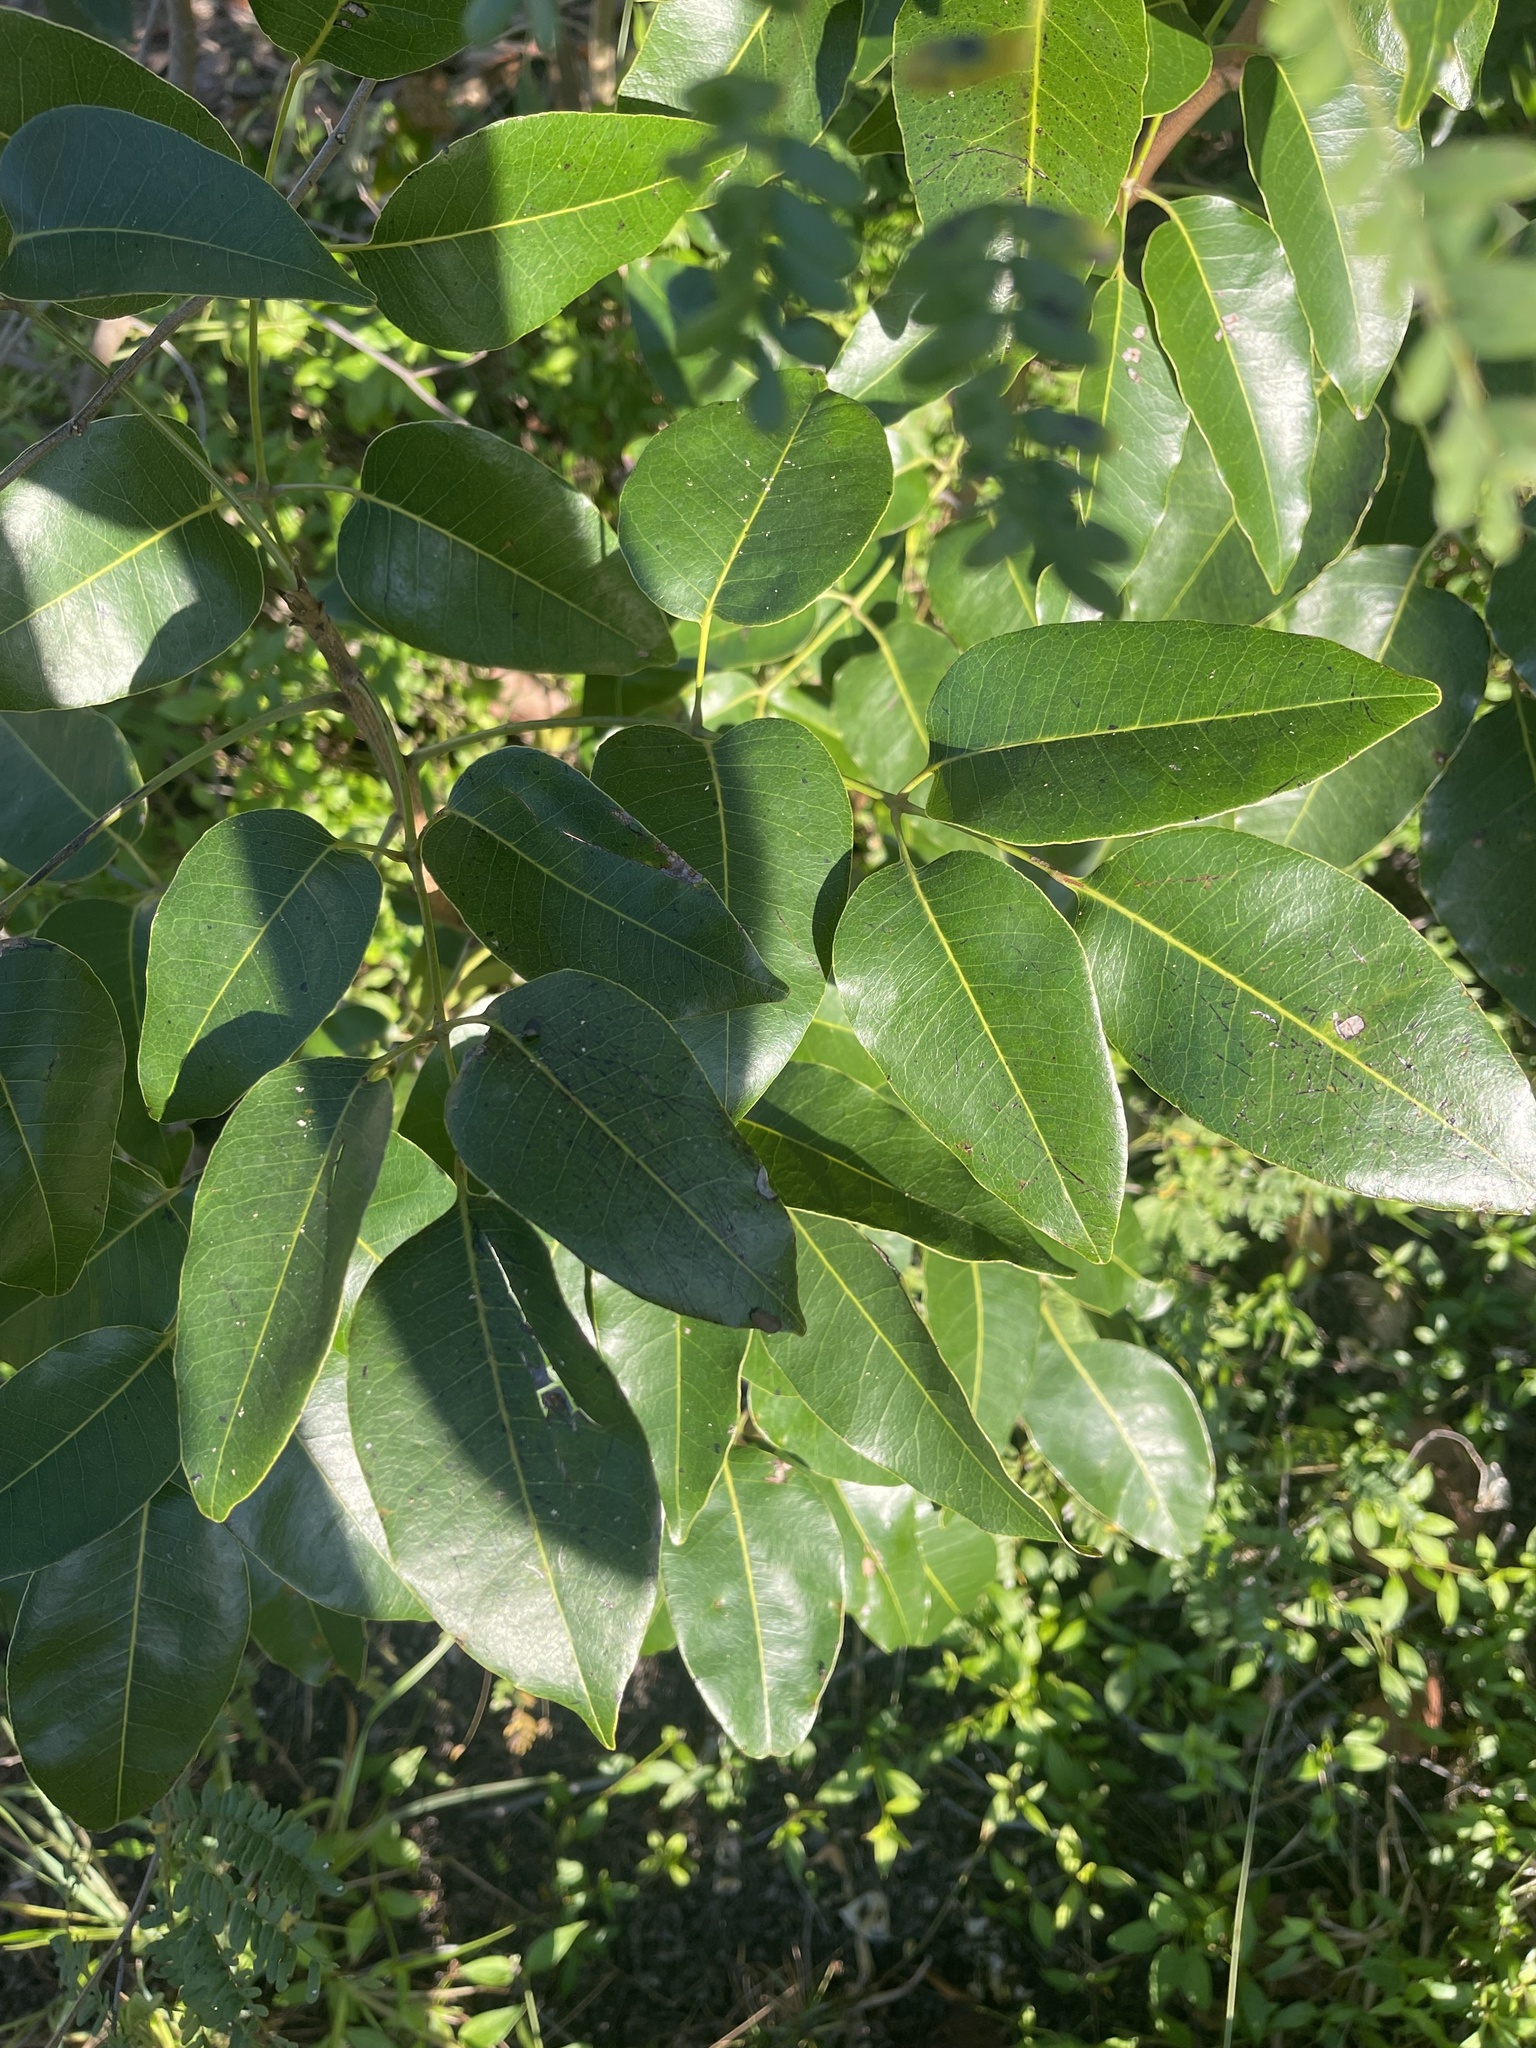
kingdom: Plantae
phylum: Tracheophyta
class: Magnoliopsida
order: Sapindales
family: Anacardiaceae
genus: Metopium
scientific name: Metopium toxiferum
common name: Florida poisontree
